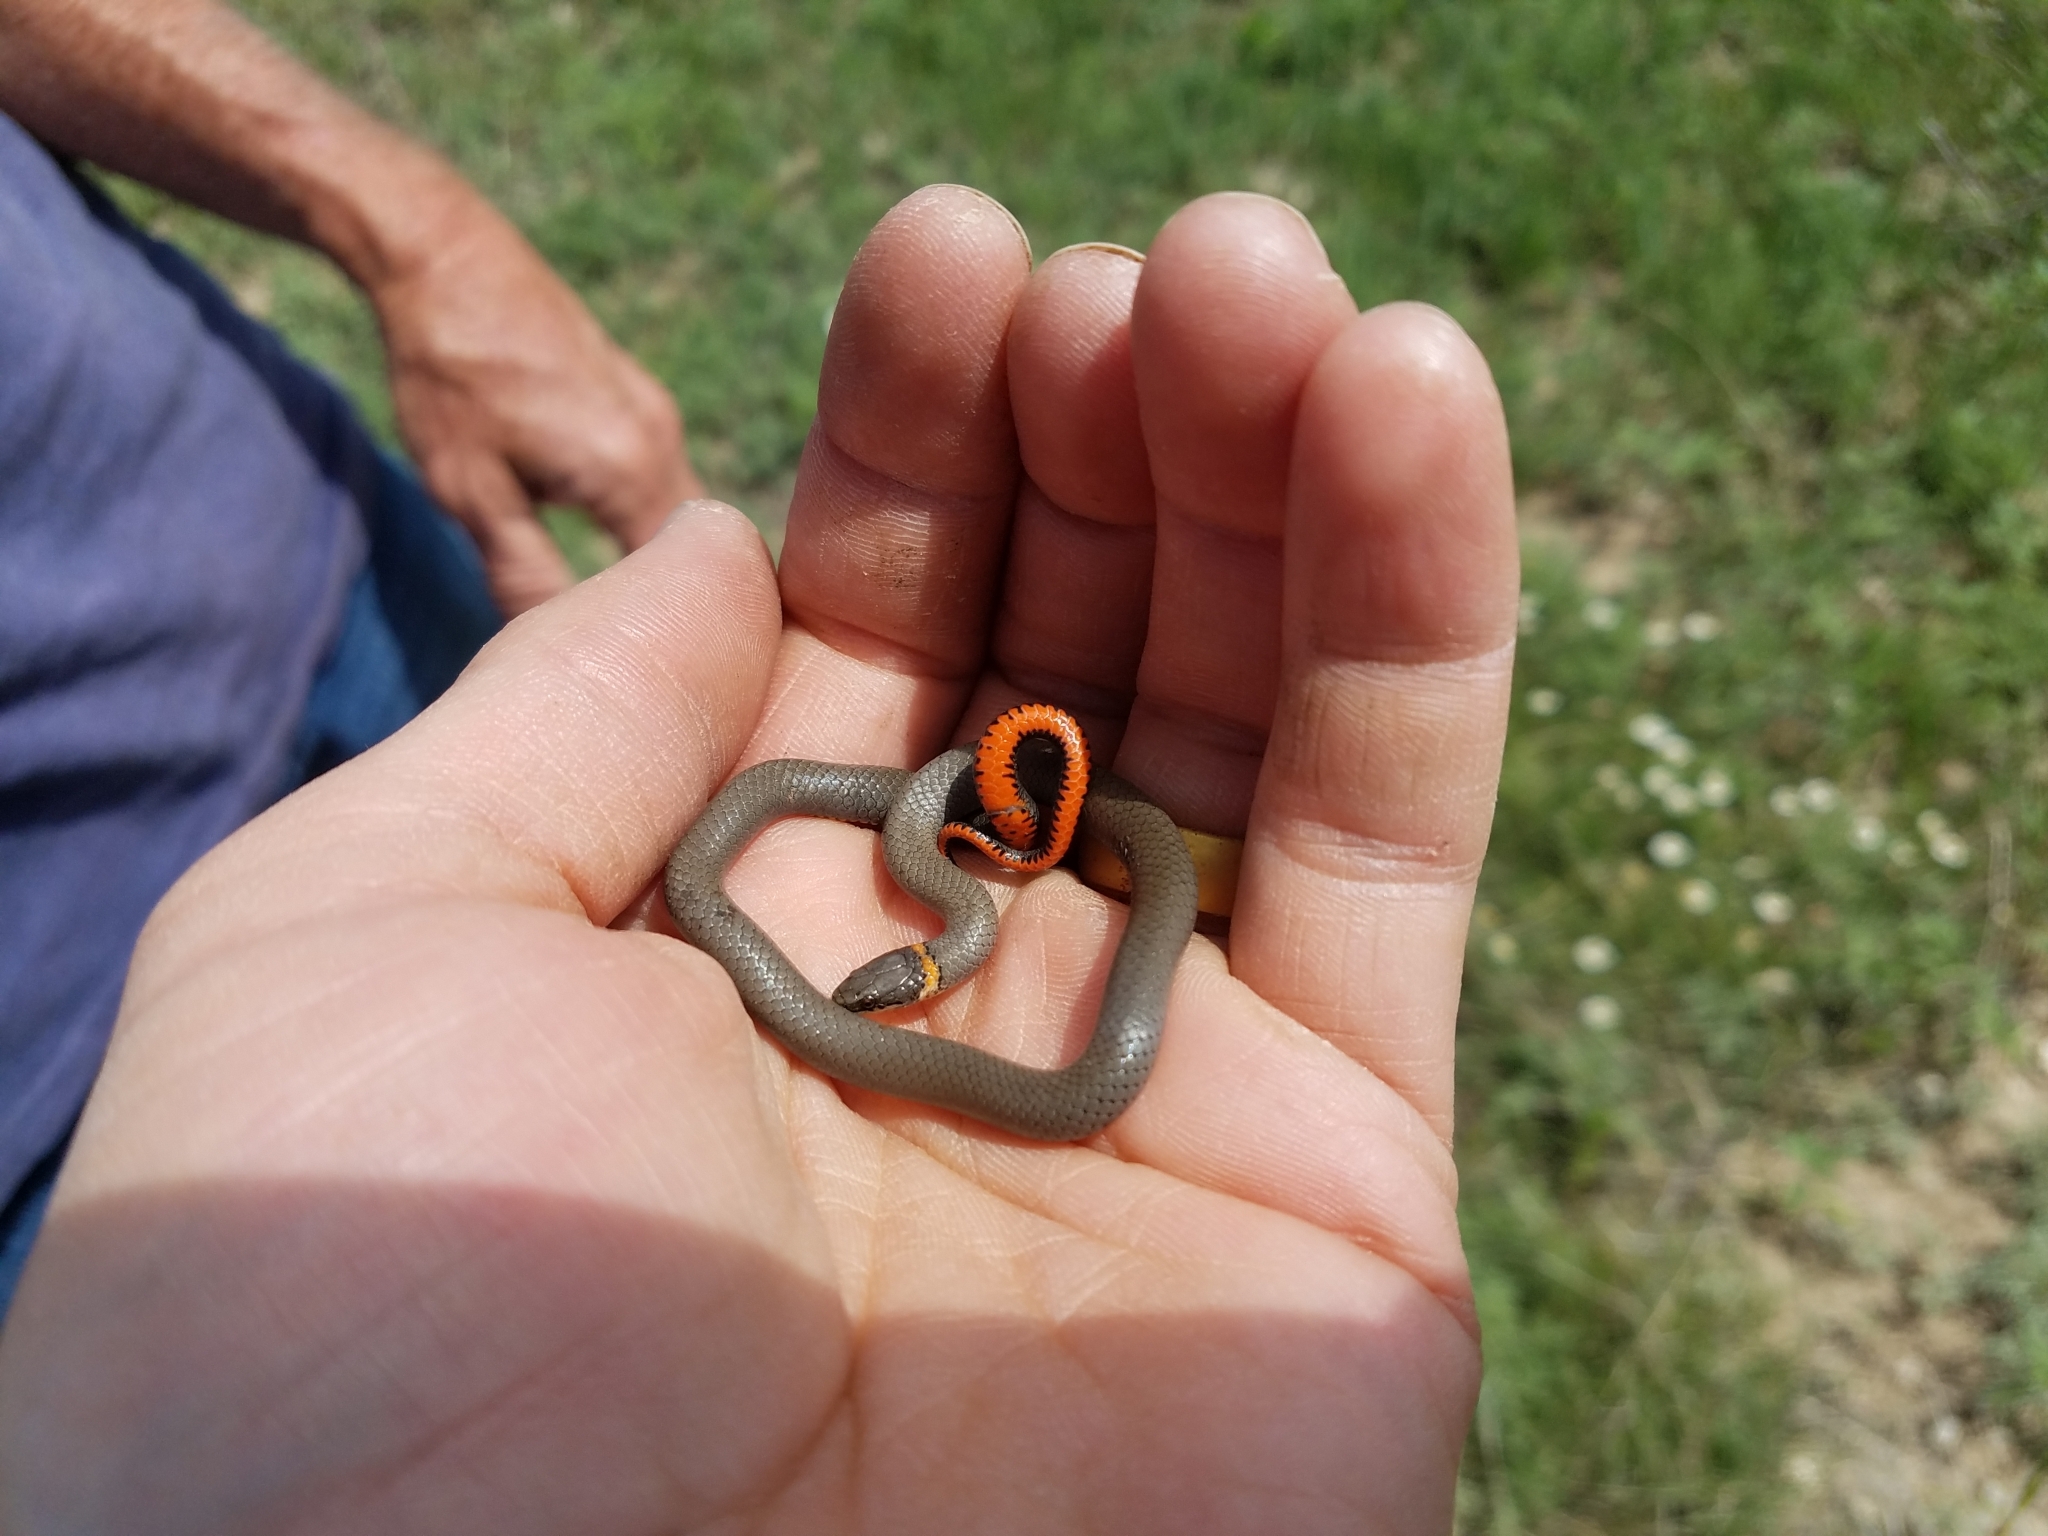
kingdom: Animalia
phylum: Chordata
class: Squamata
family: Colubridae
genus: Diadophis
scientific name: Diadophis punctatus
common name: Ringneck snake
